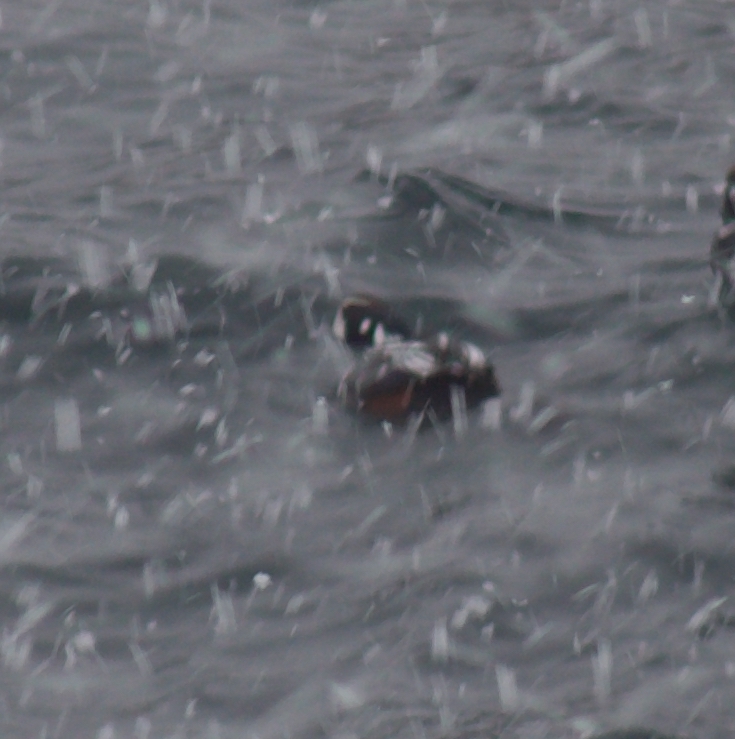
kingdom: Animalia
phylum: Chordata
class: Aves
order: Anseriformes
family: Anatidae
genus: Histrionicus
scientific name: Histrionicus histrionicus
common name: Harlequin duck
